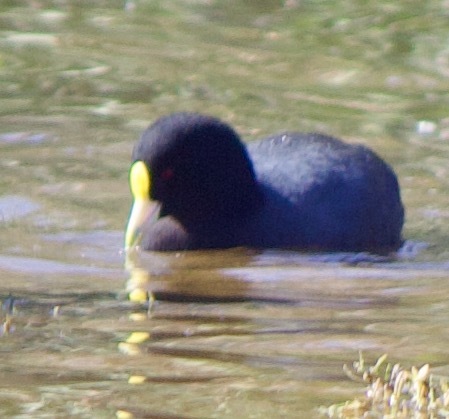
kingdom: Animalia
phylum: Chordata
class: Aves
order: Gruiformes
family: Rallidae
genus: Fulica
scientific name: Fulica leucoptera
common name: White-winged coot
